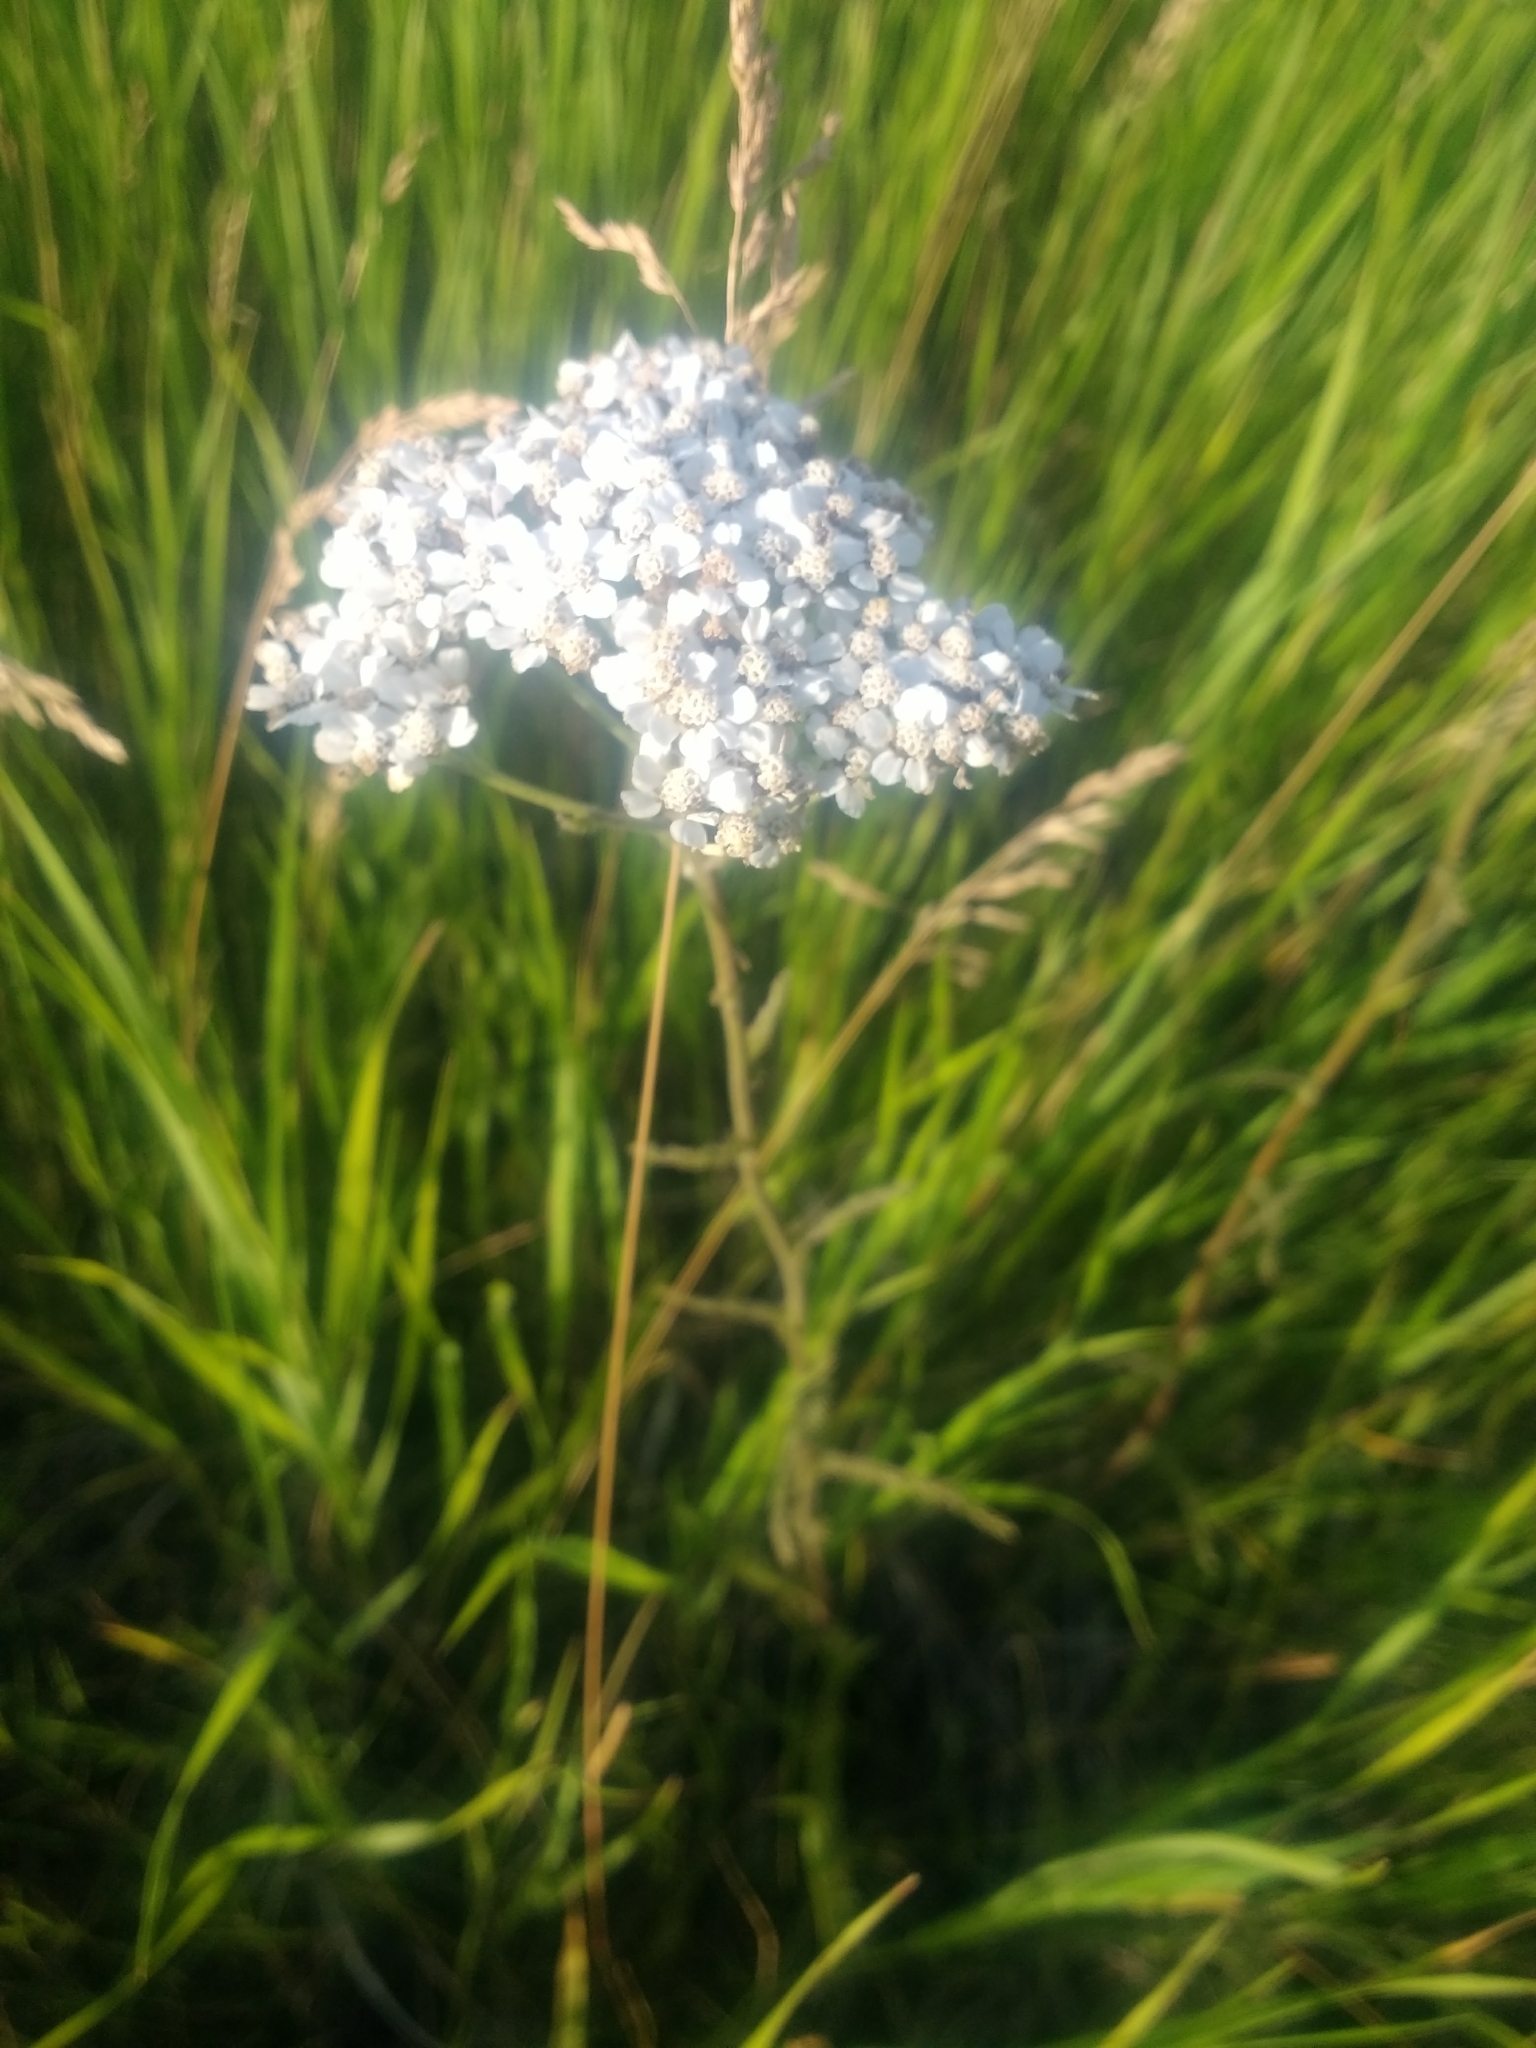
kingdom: Plantae
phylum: Tracheophyta
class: Magnoliopsida
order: Asterales
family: Asteraceae
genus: Achillea
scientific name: Achillea millefolium
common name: Yarrow
